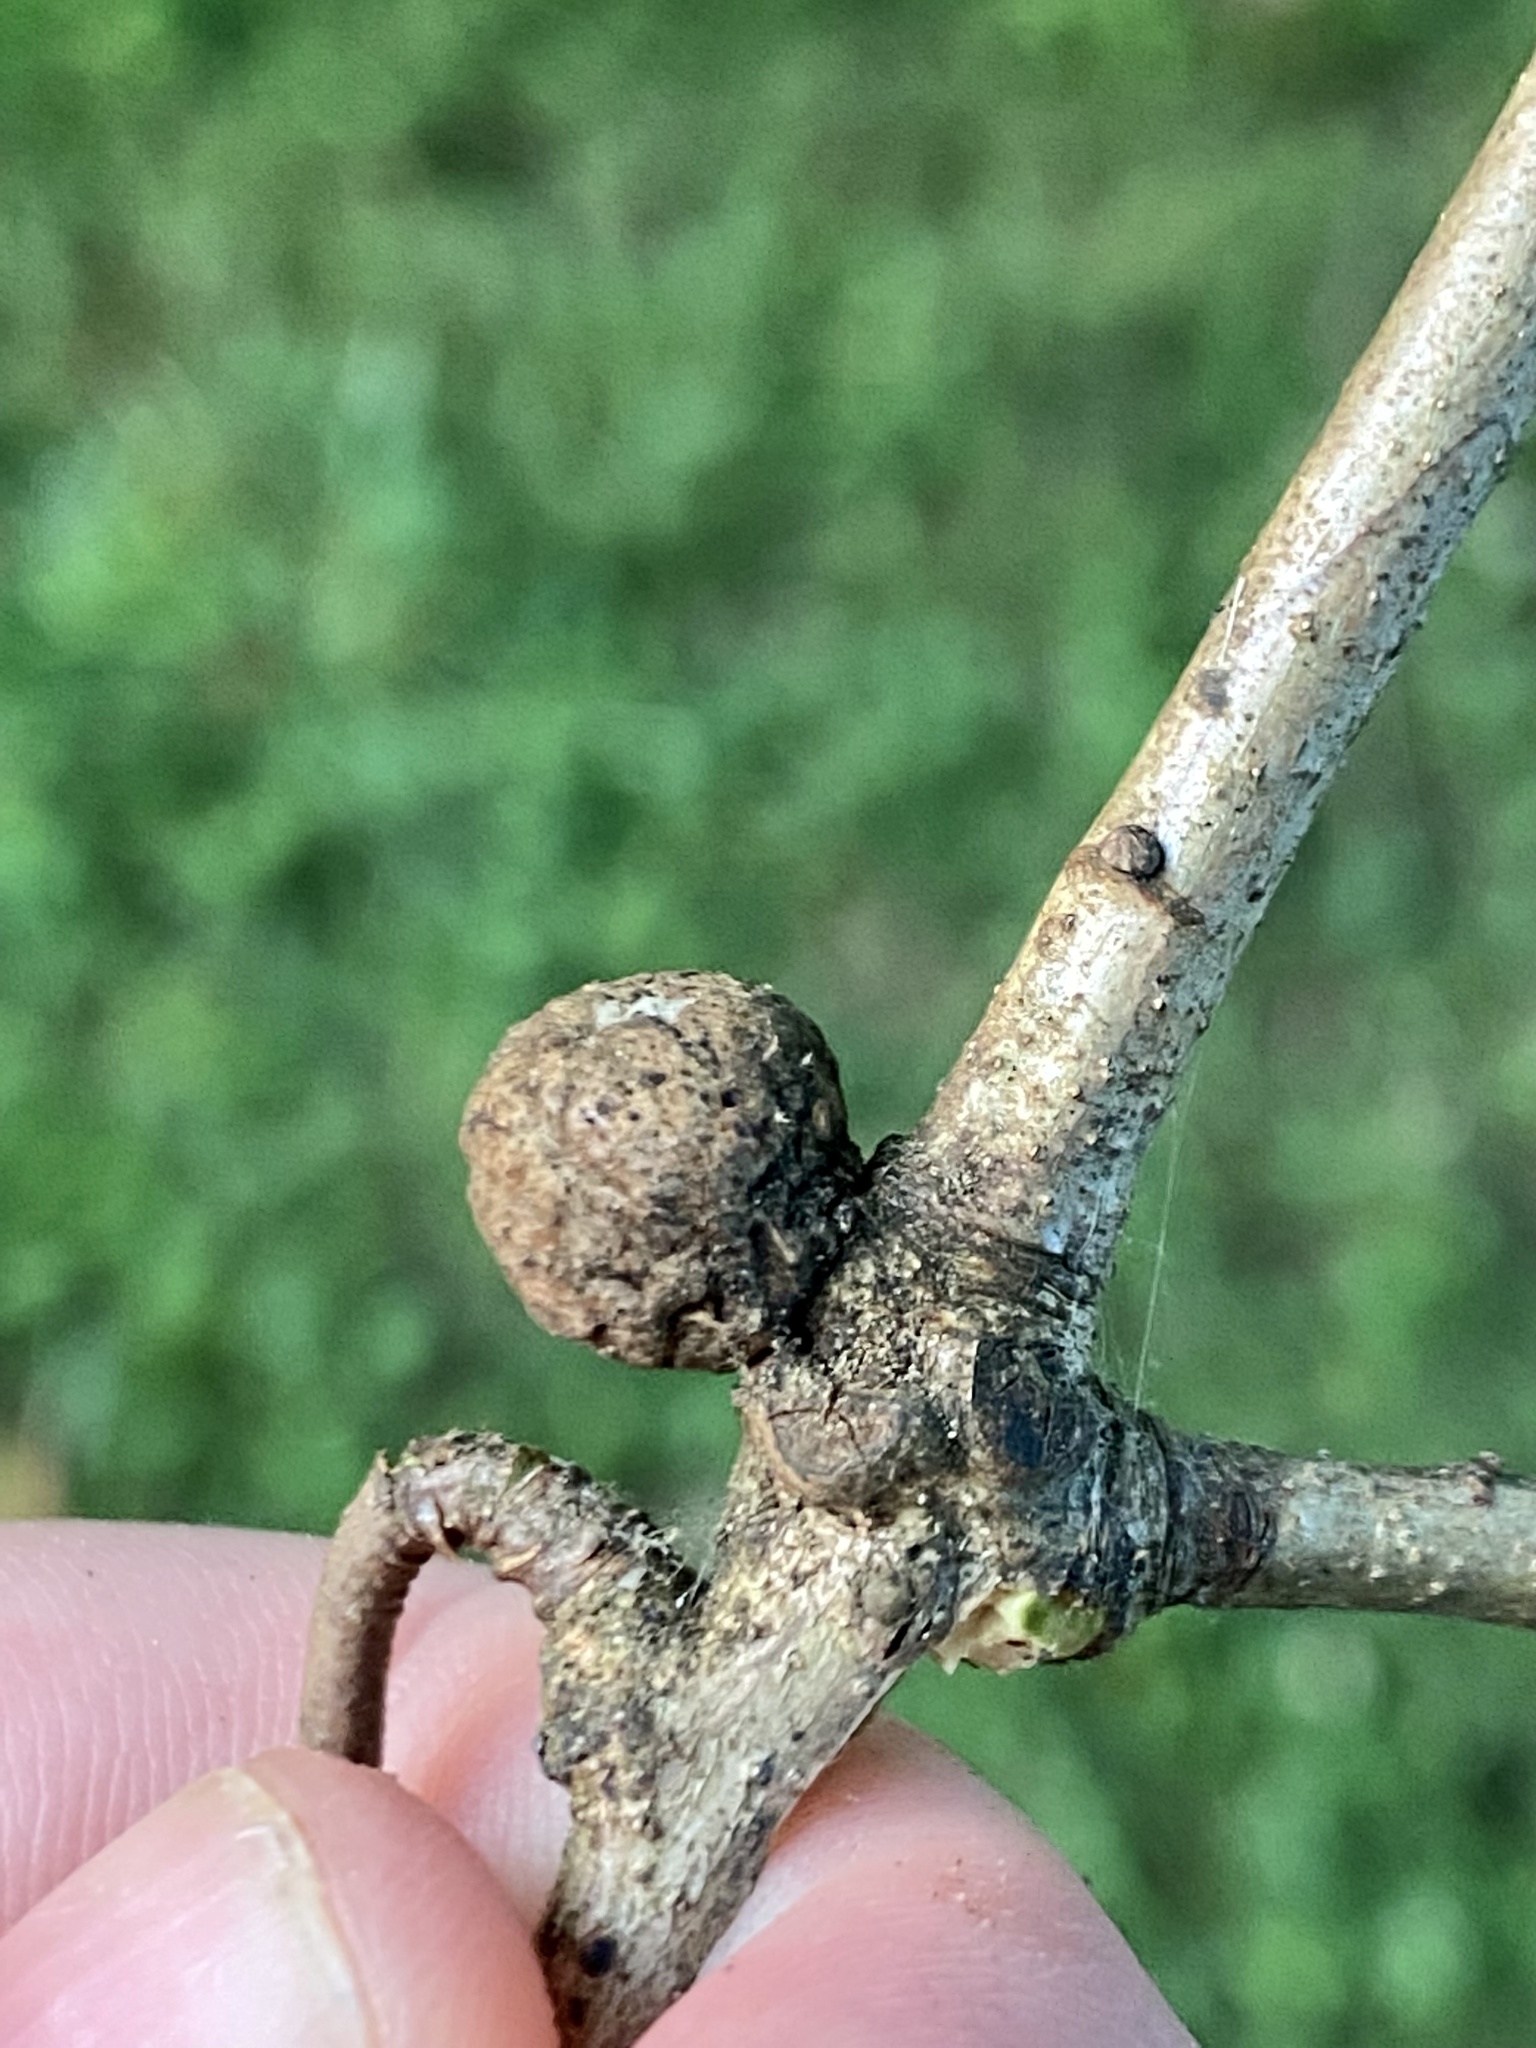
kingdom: Animalia
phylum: Arthropoda
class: Insecta
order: Hymenoptera
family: Cynipidae
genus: Disholcaspis
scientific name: Disholcaspis quercusglobulus
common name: Round bullet gall wasp
